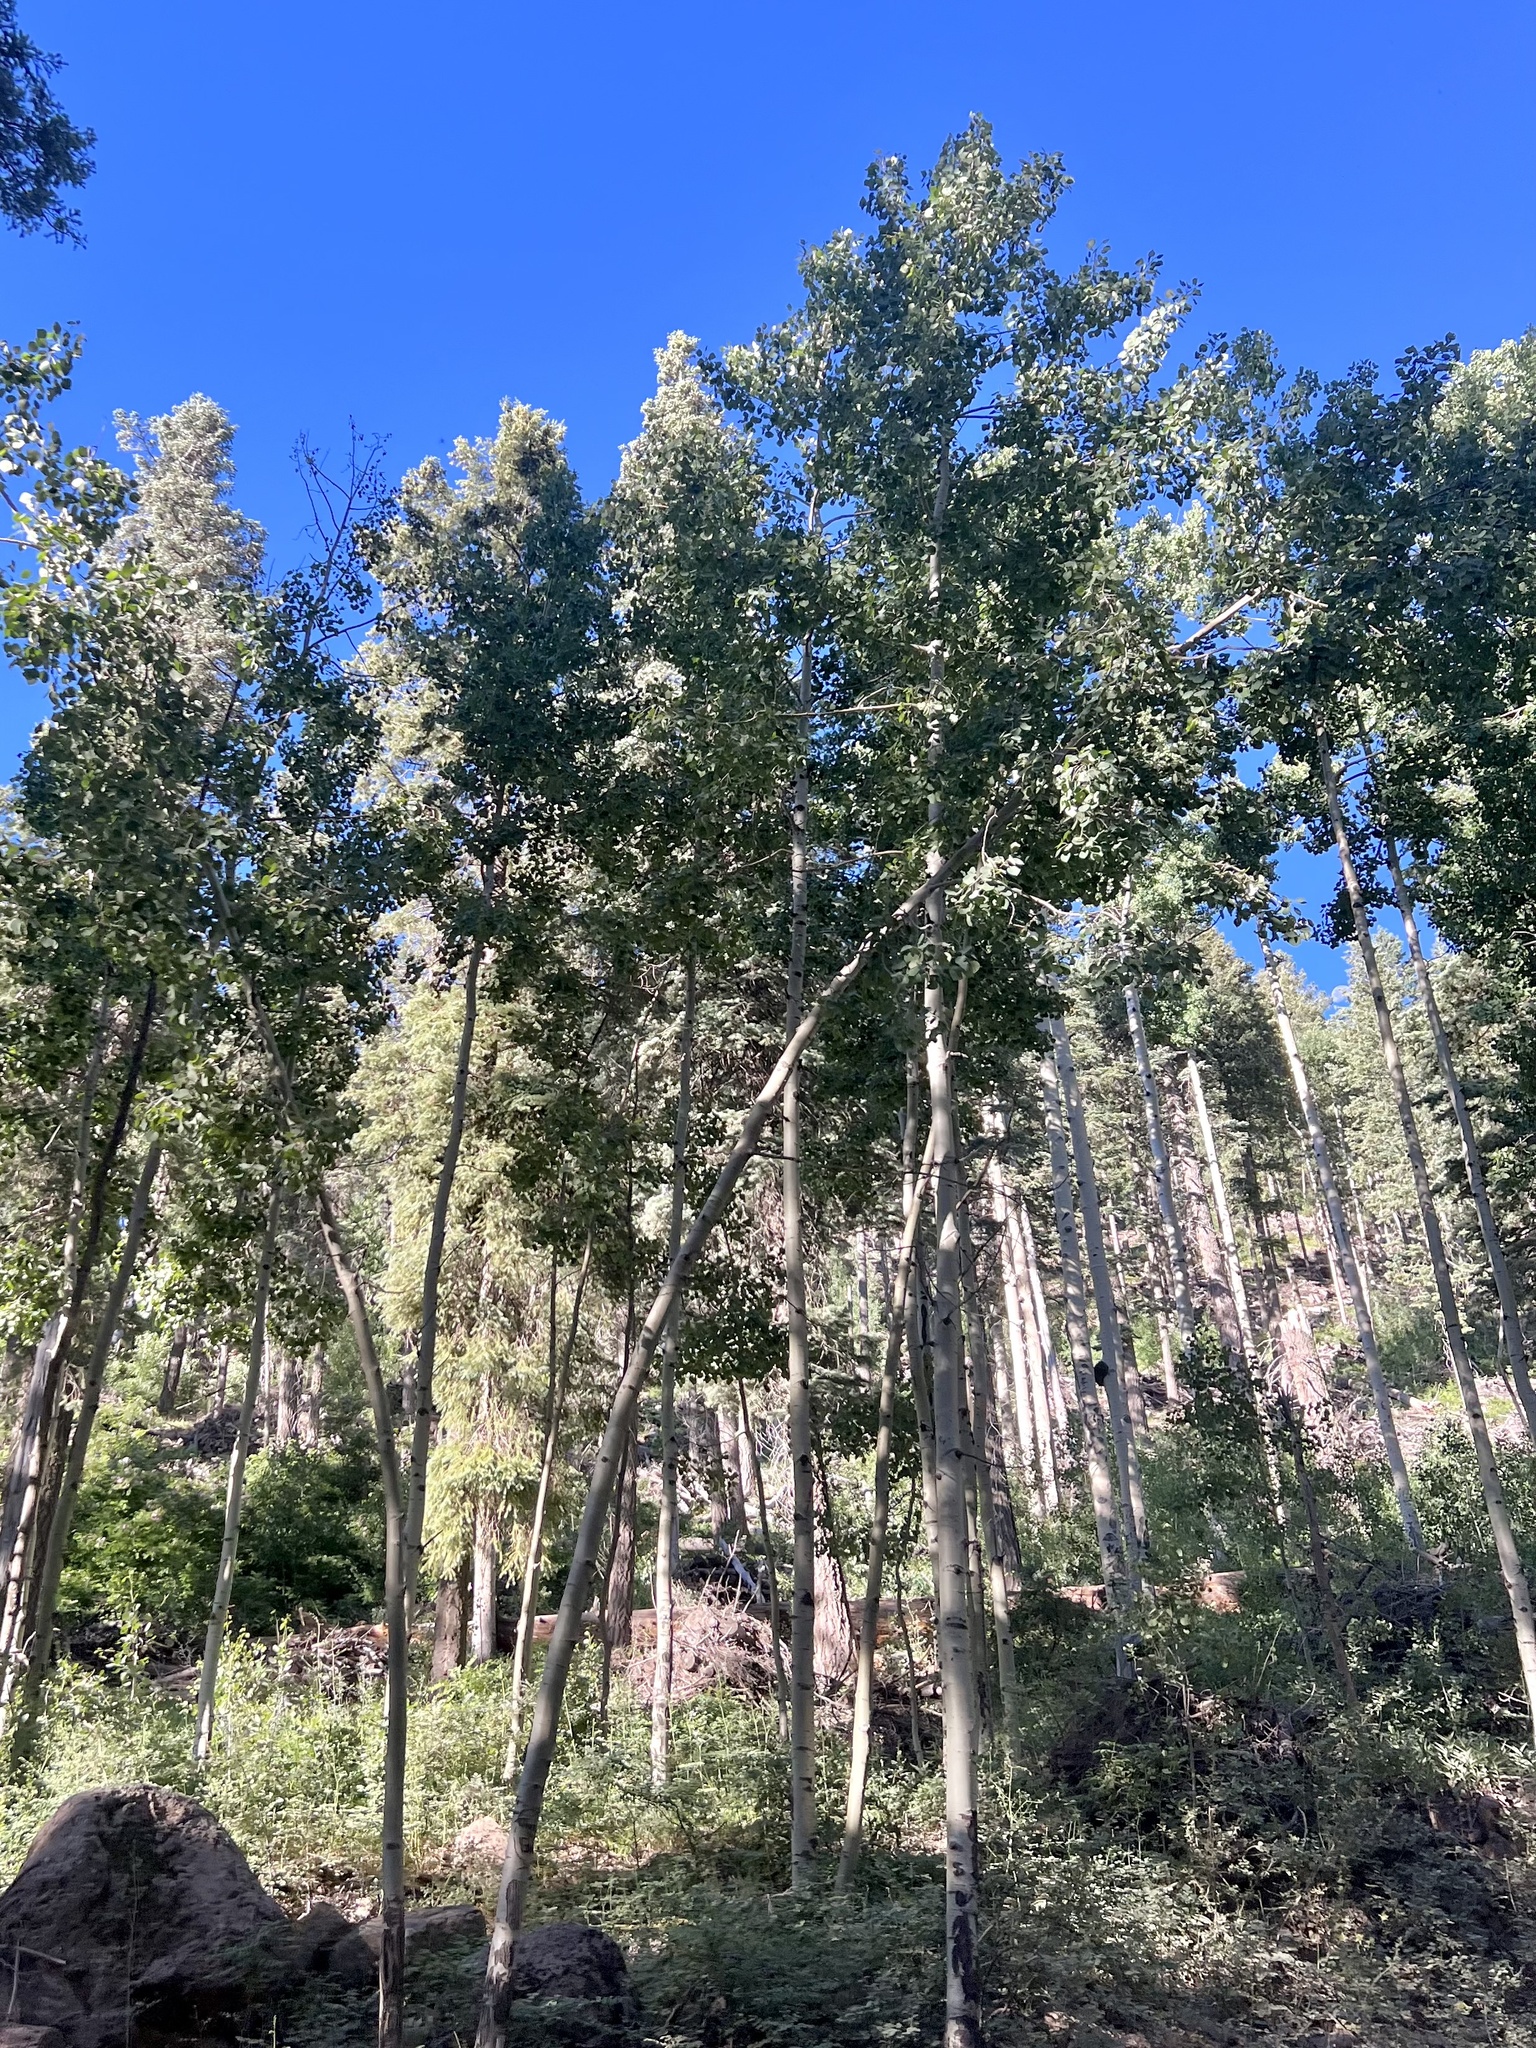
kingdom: Plantae
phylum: Tracheophyta
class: Magnoliopsida
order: Malpighiales
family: Salicaceae
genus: Populus
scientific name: Populus tremuloides
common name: Quaking aspen
